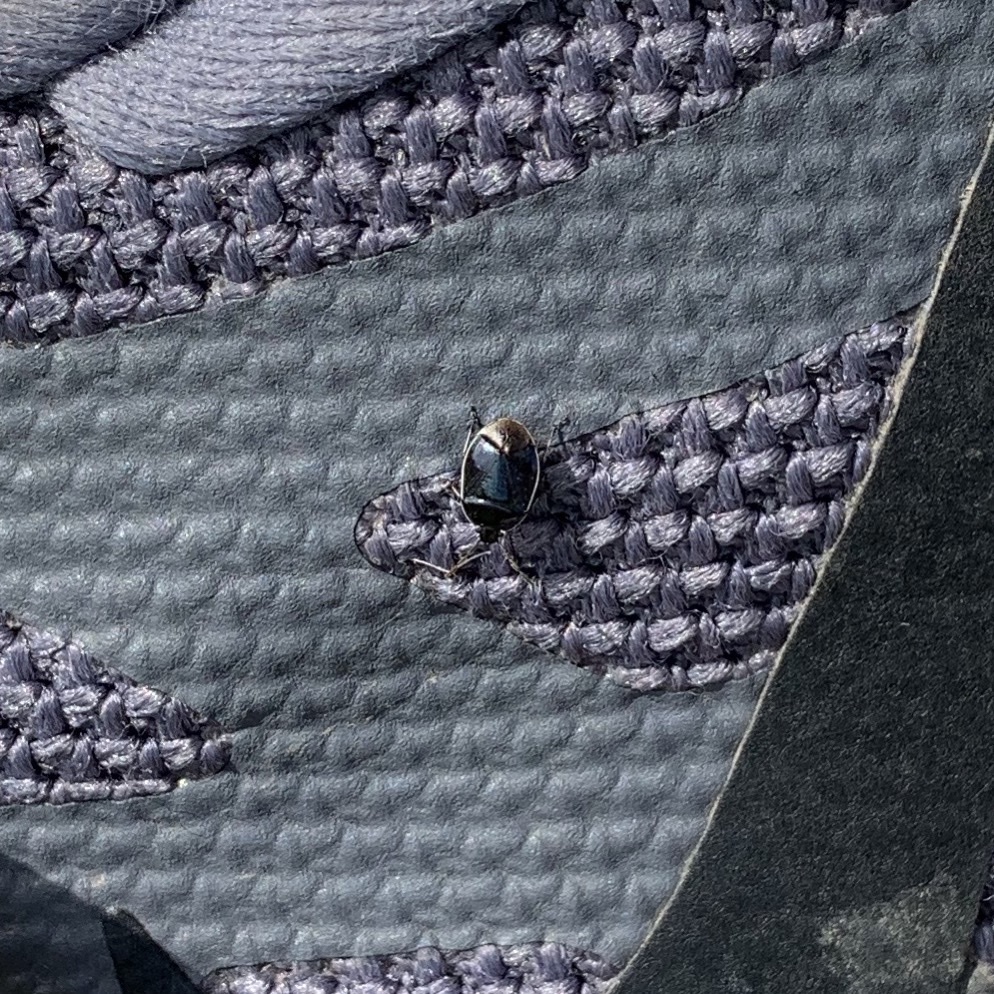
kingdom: Animalia
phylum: Arthropoda
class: Insecta
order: Hemiptera
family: Cydnidae
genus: Sehirus
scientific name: Sehirus cinctus
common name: White-margined burrower bug
